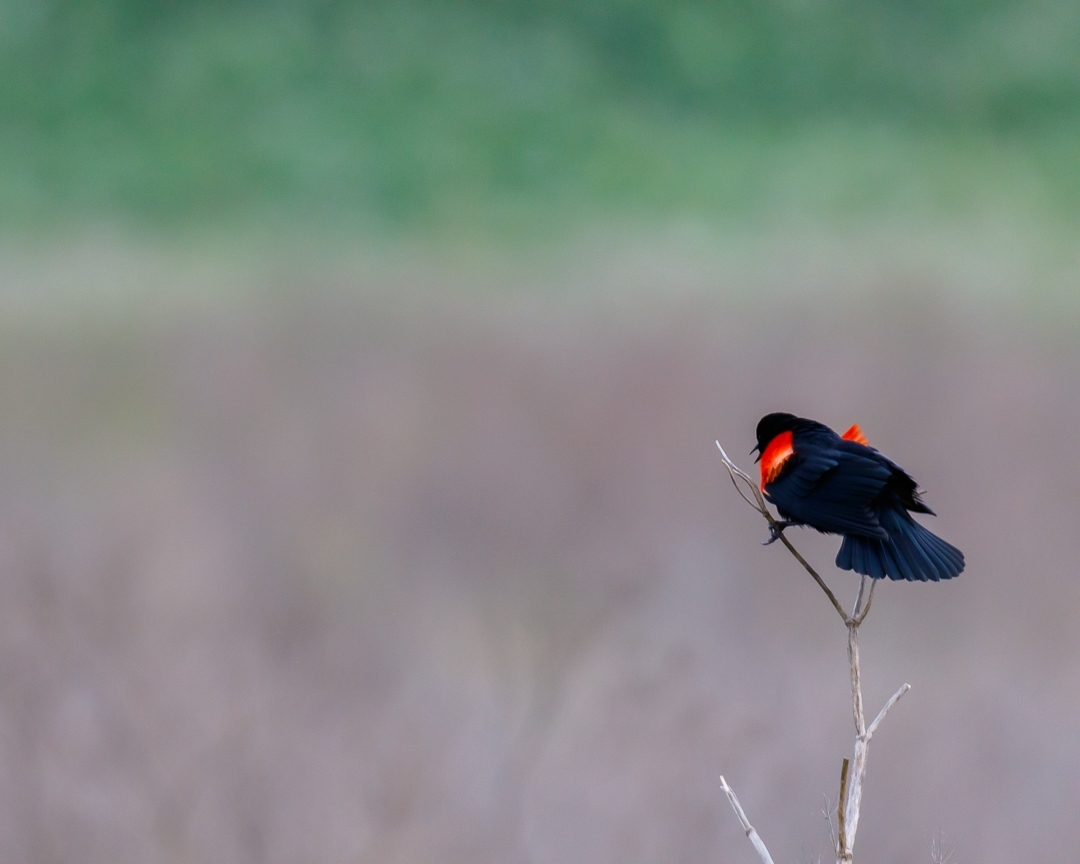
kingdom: Animalia
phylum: Chordata
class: Aves
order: Passeriformes
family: Icteridae
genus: Agelaius
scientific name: Agelaius phoeniceus
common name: Red-winged blackbird
